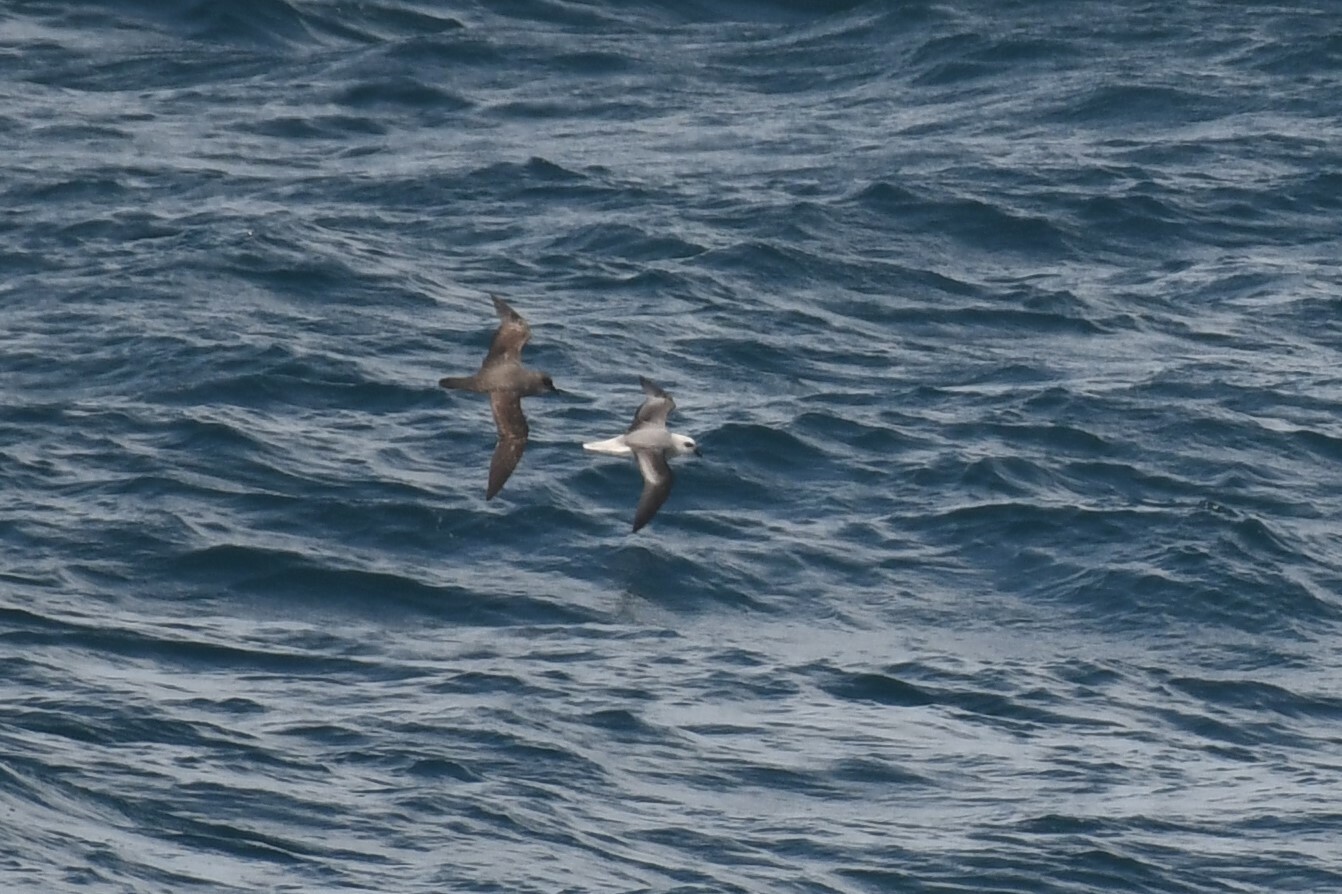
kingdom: Animalia
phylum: Chordata
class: Aves
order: Procellariiformes
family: Procellariidae
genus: Pterodroma
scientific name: Pterodroma lessonii
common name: White-headed petrel
